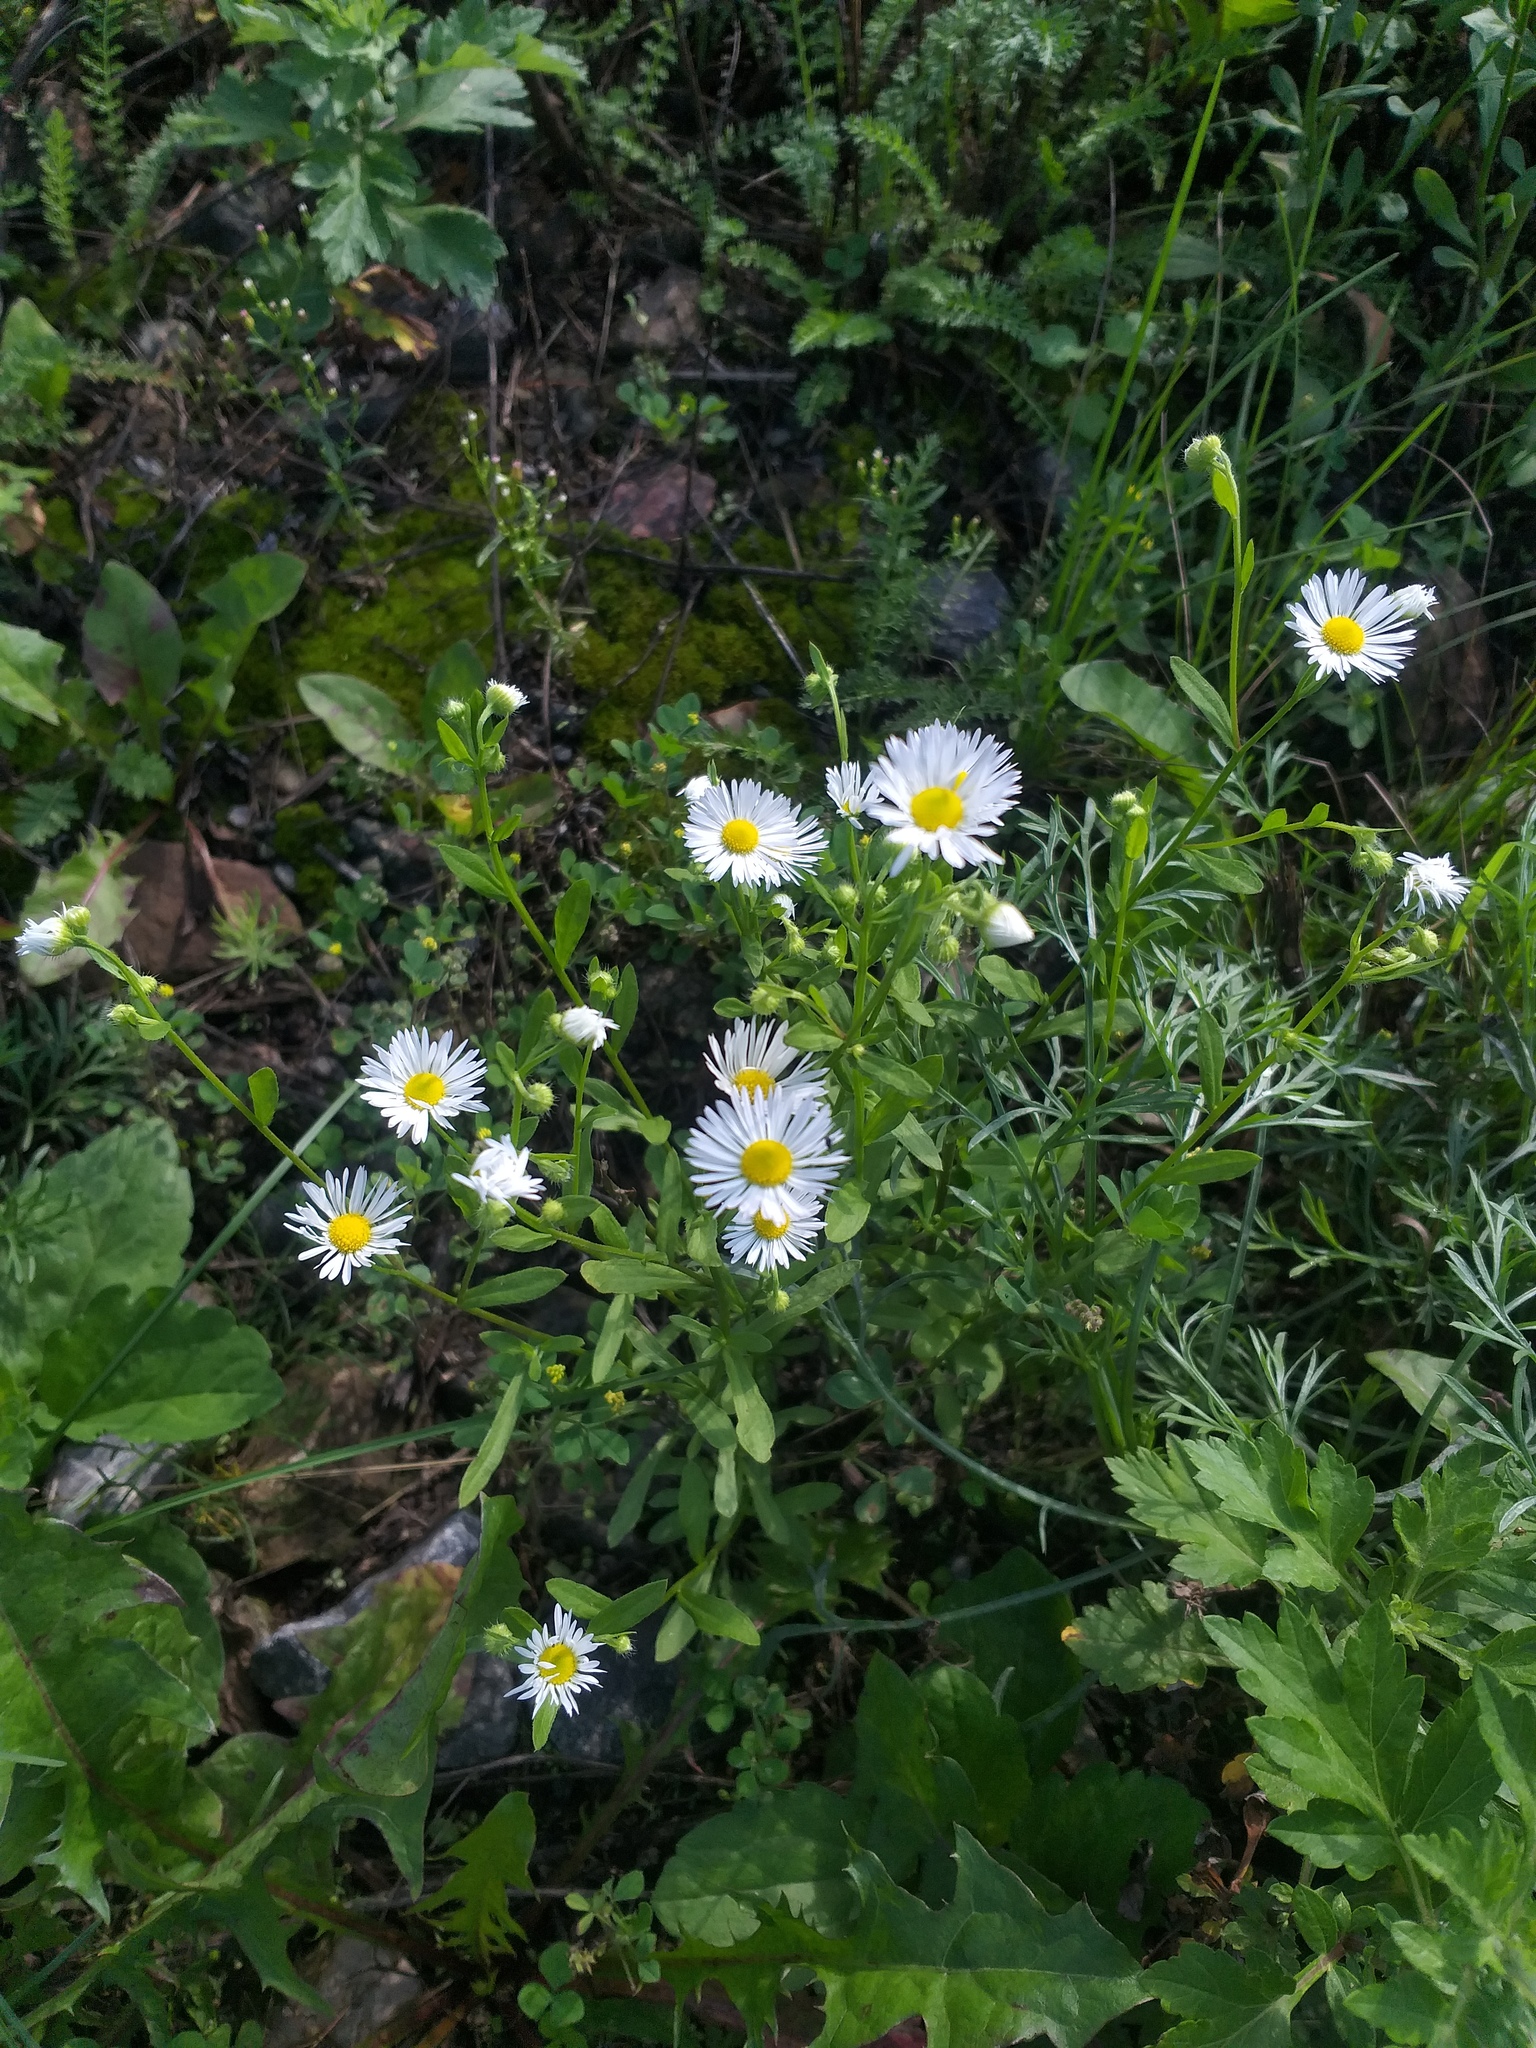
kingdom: Plantae
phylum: Tracheophyta
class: Magnoliopsida
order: Asterales
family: Asteraceae
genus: Erigeron
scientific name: Erigeron annuus
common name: Tall fleabane
